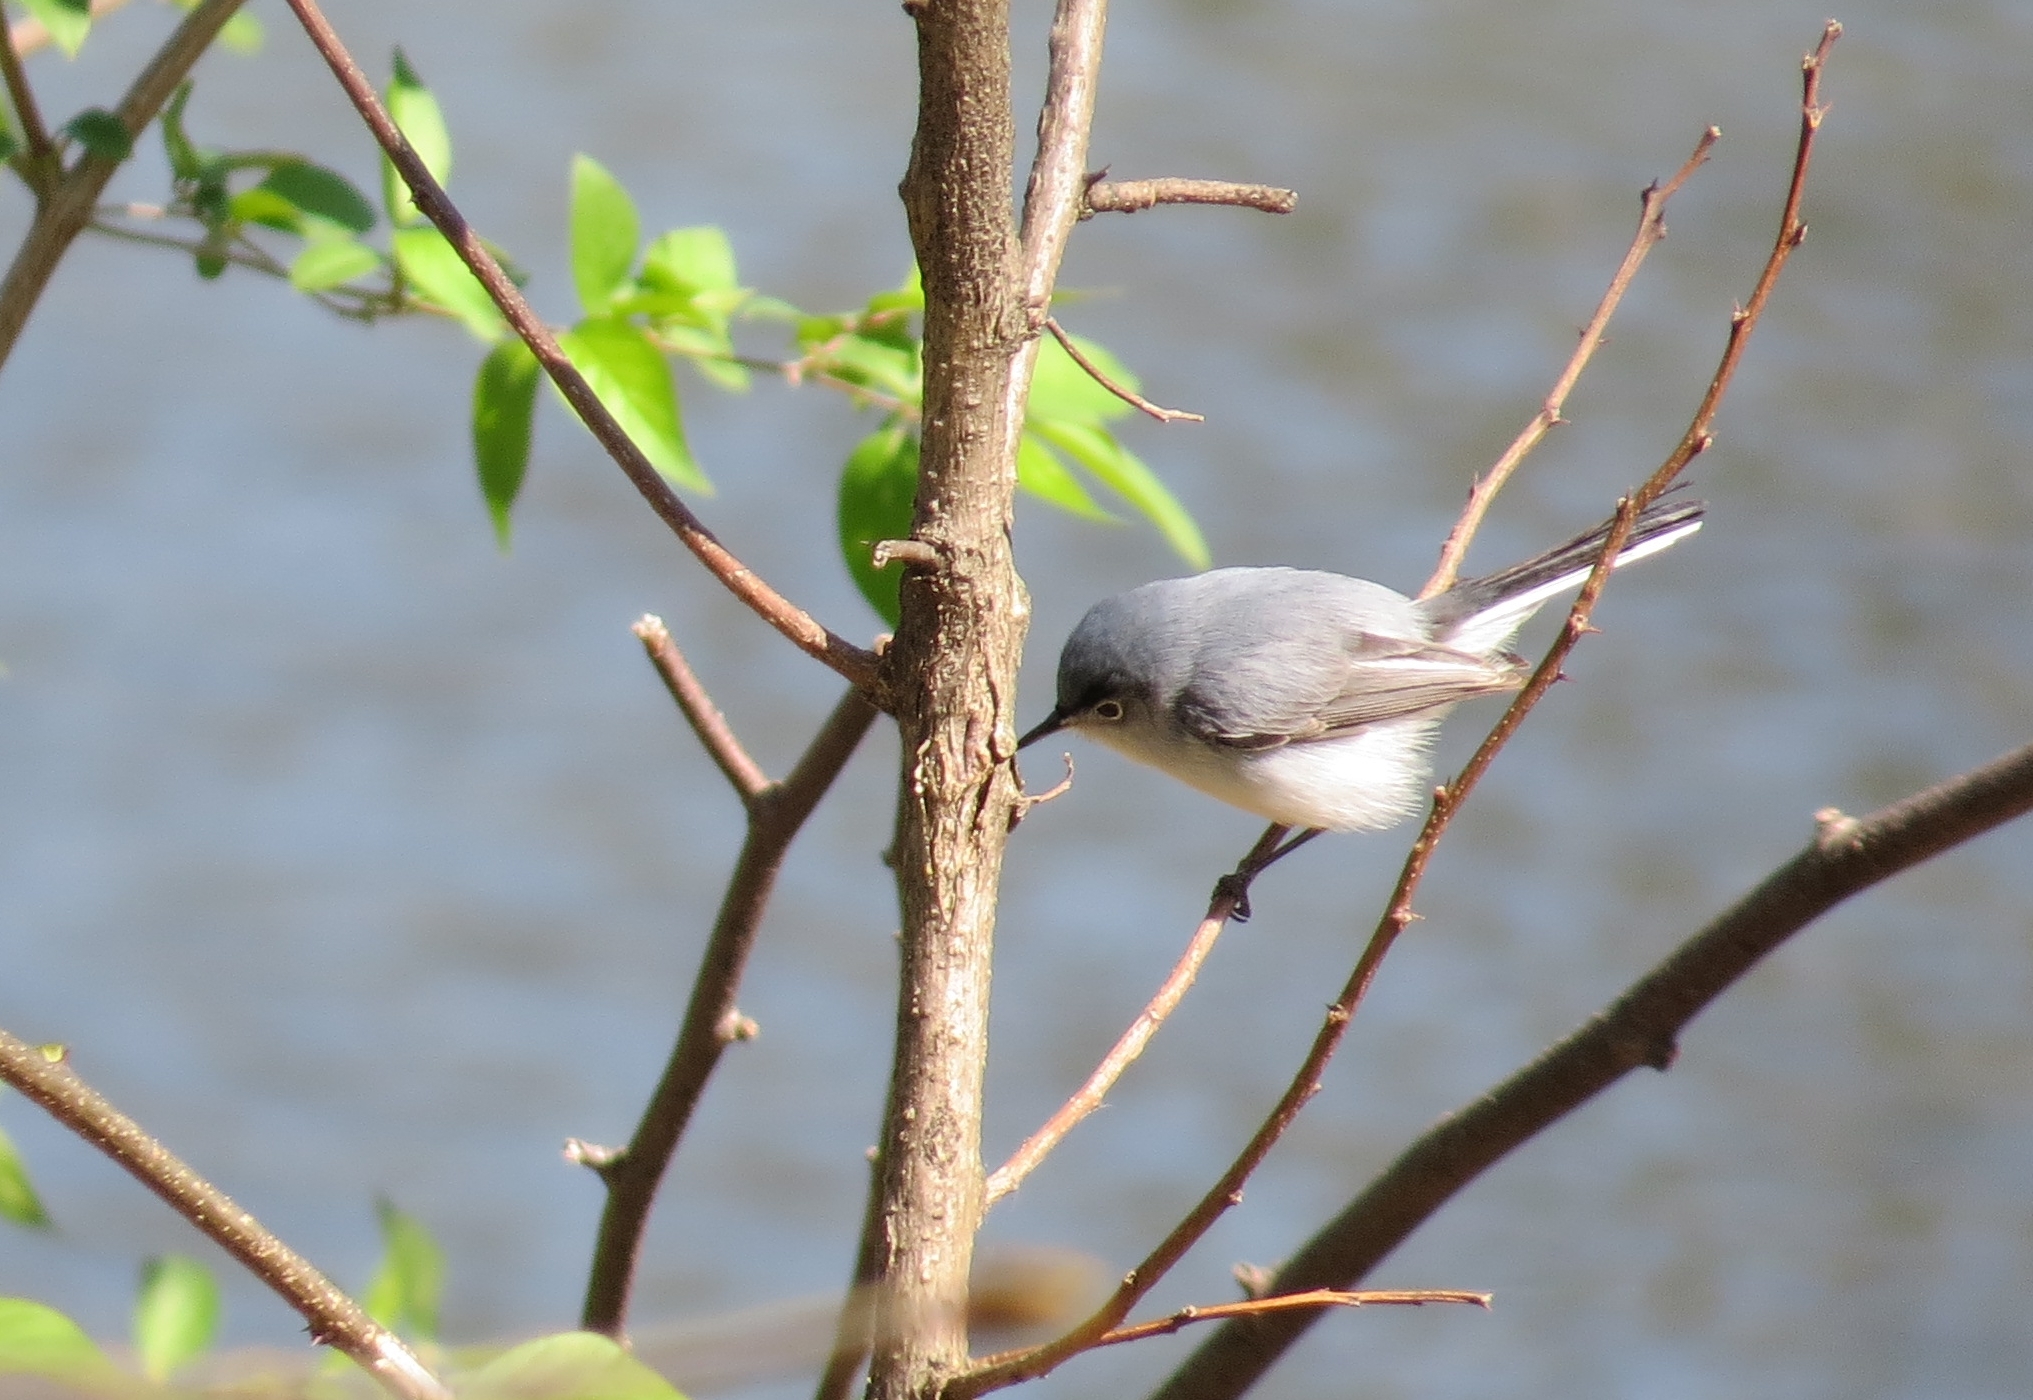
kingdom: Animalia
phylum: Chordata
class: Aves
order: Passeriformes
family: Polioptilidae
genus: Polioptila
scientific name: Polioptila caerulea
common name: Blue-gray gnatcatcher
